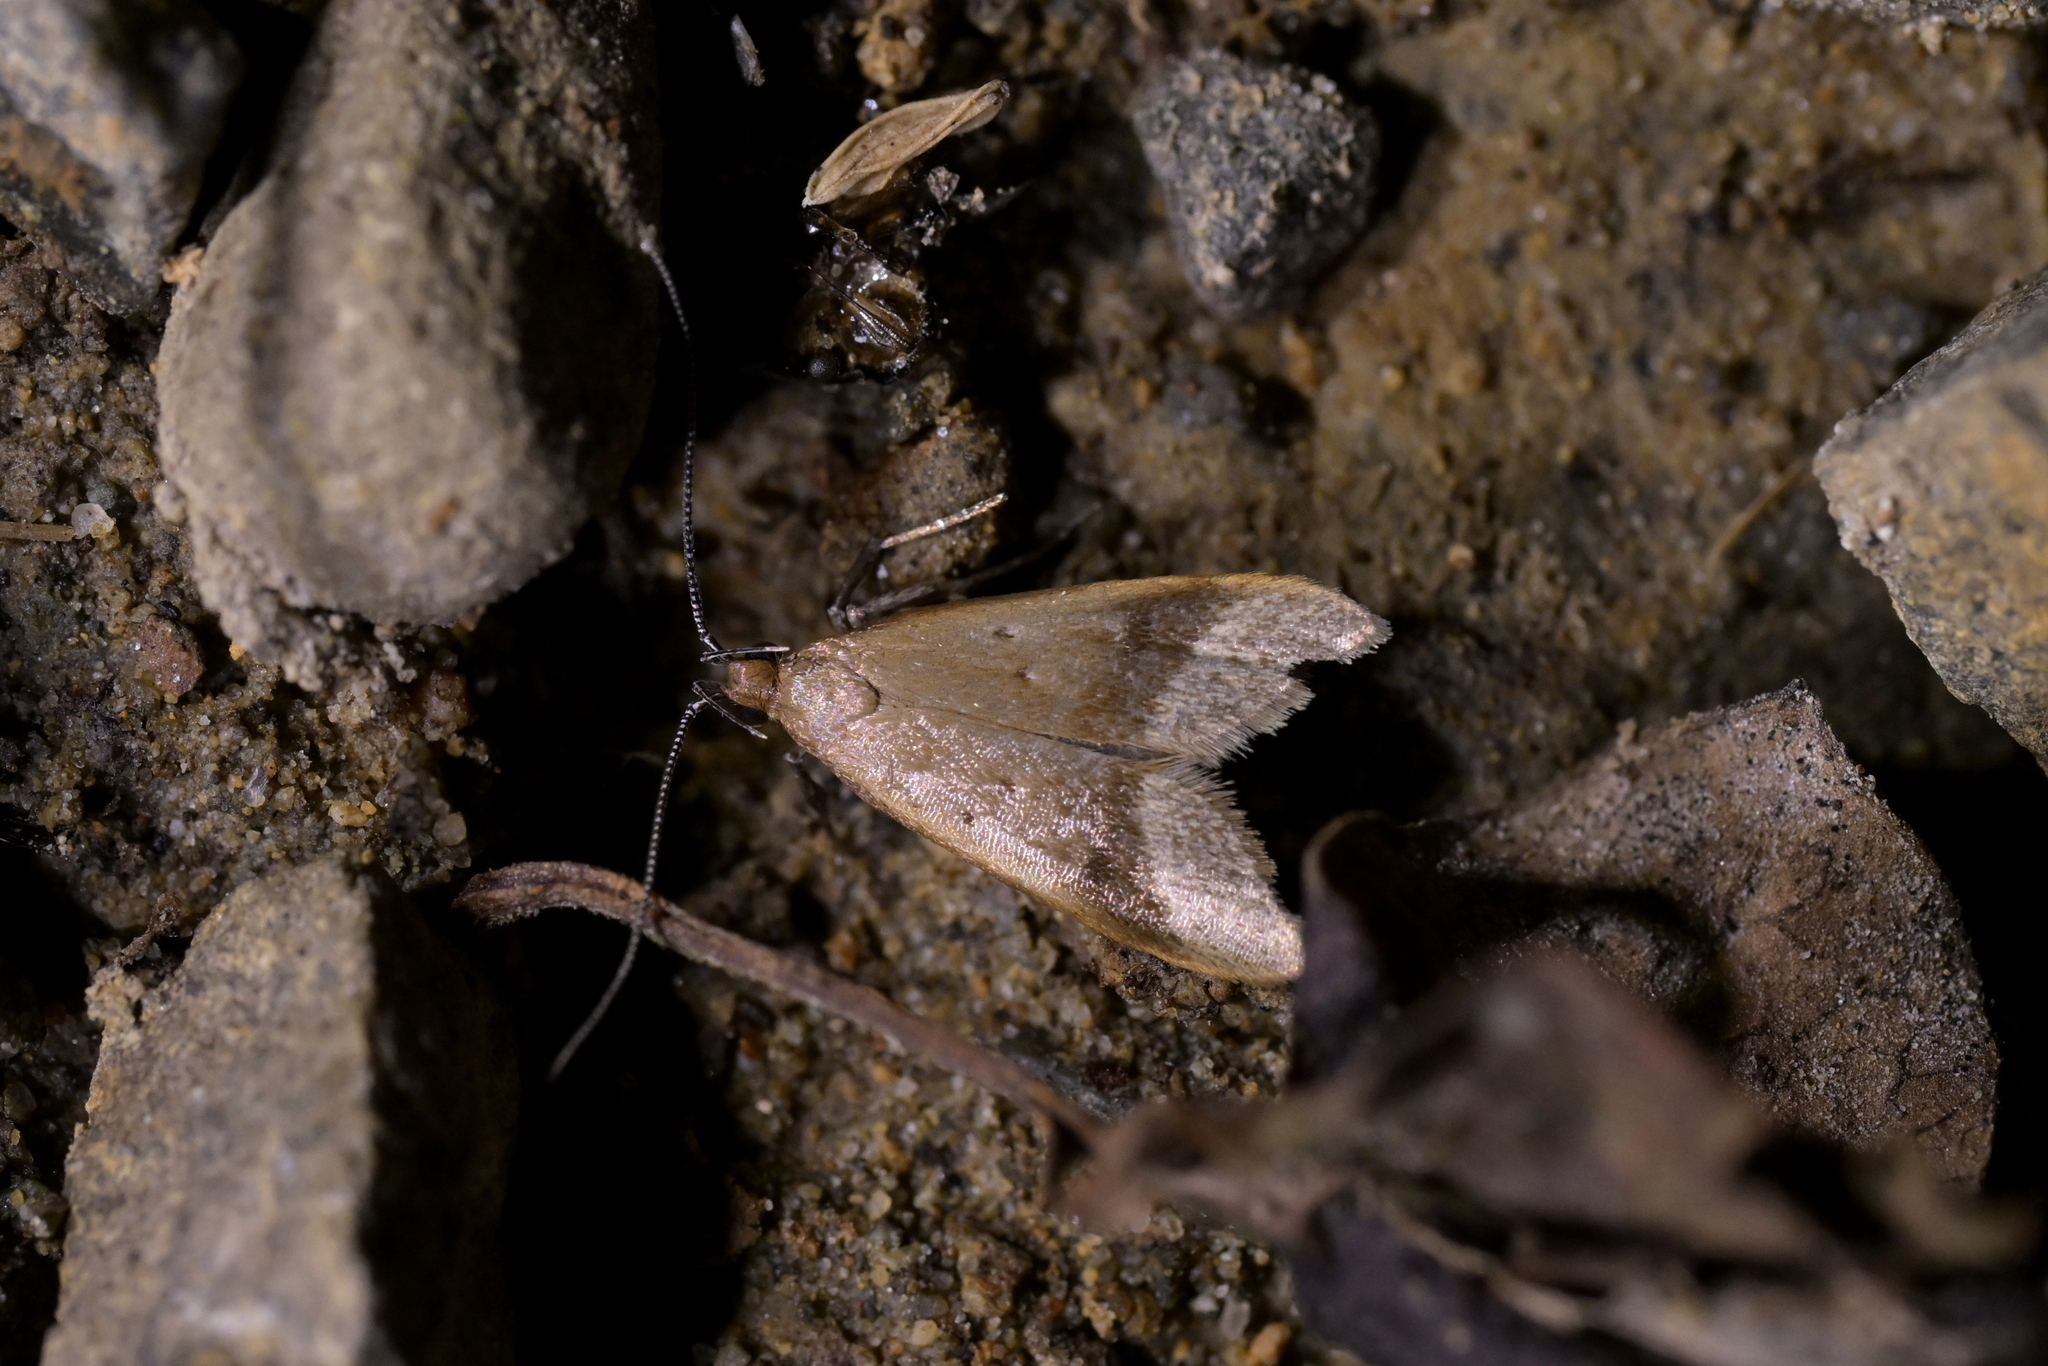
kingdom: Animalia
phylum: Arthropoda
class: Insecta
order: Lepidoptera
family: Oecophoridae
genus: Gymnobathra
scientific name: Gymnobathra hyetodes
